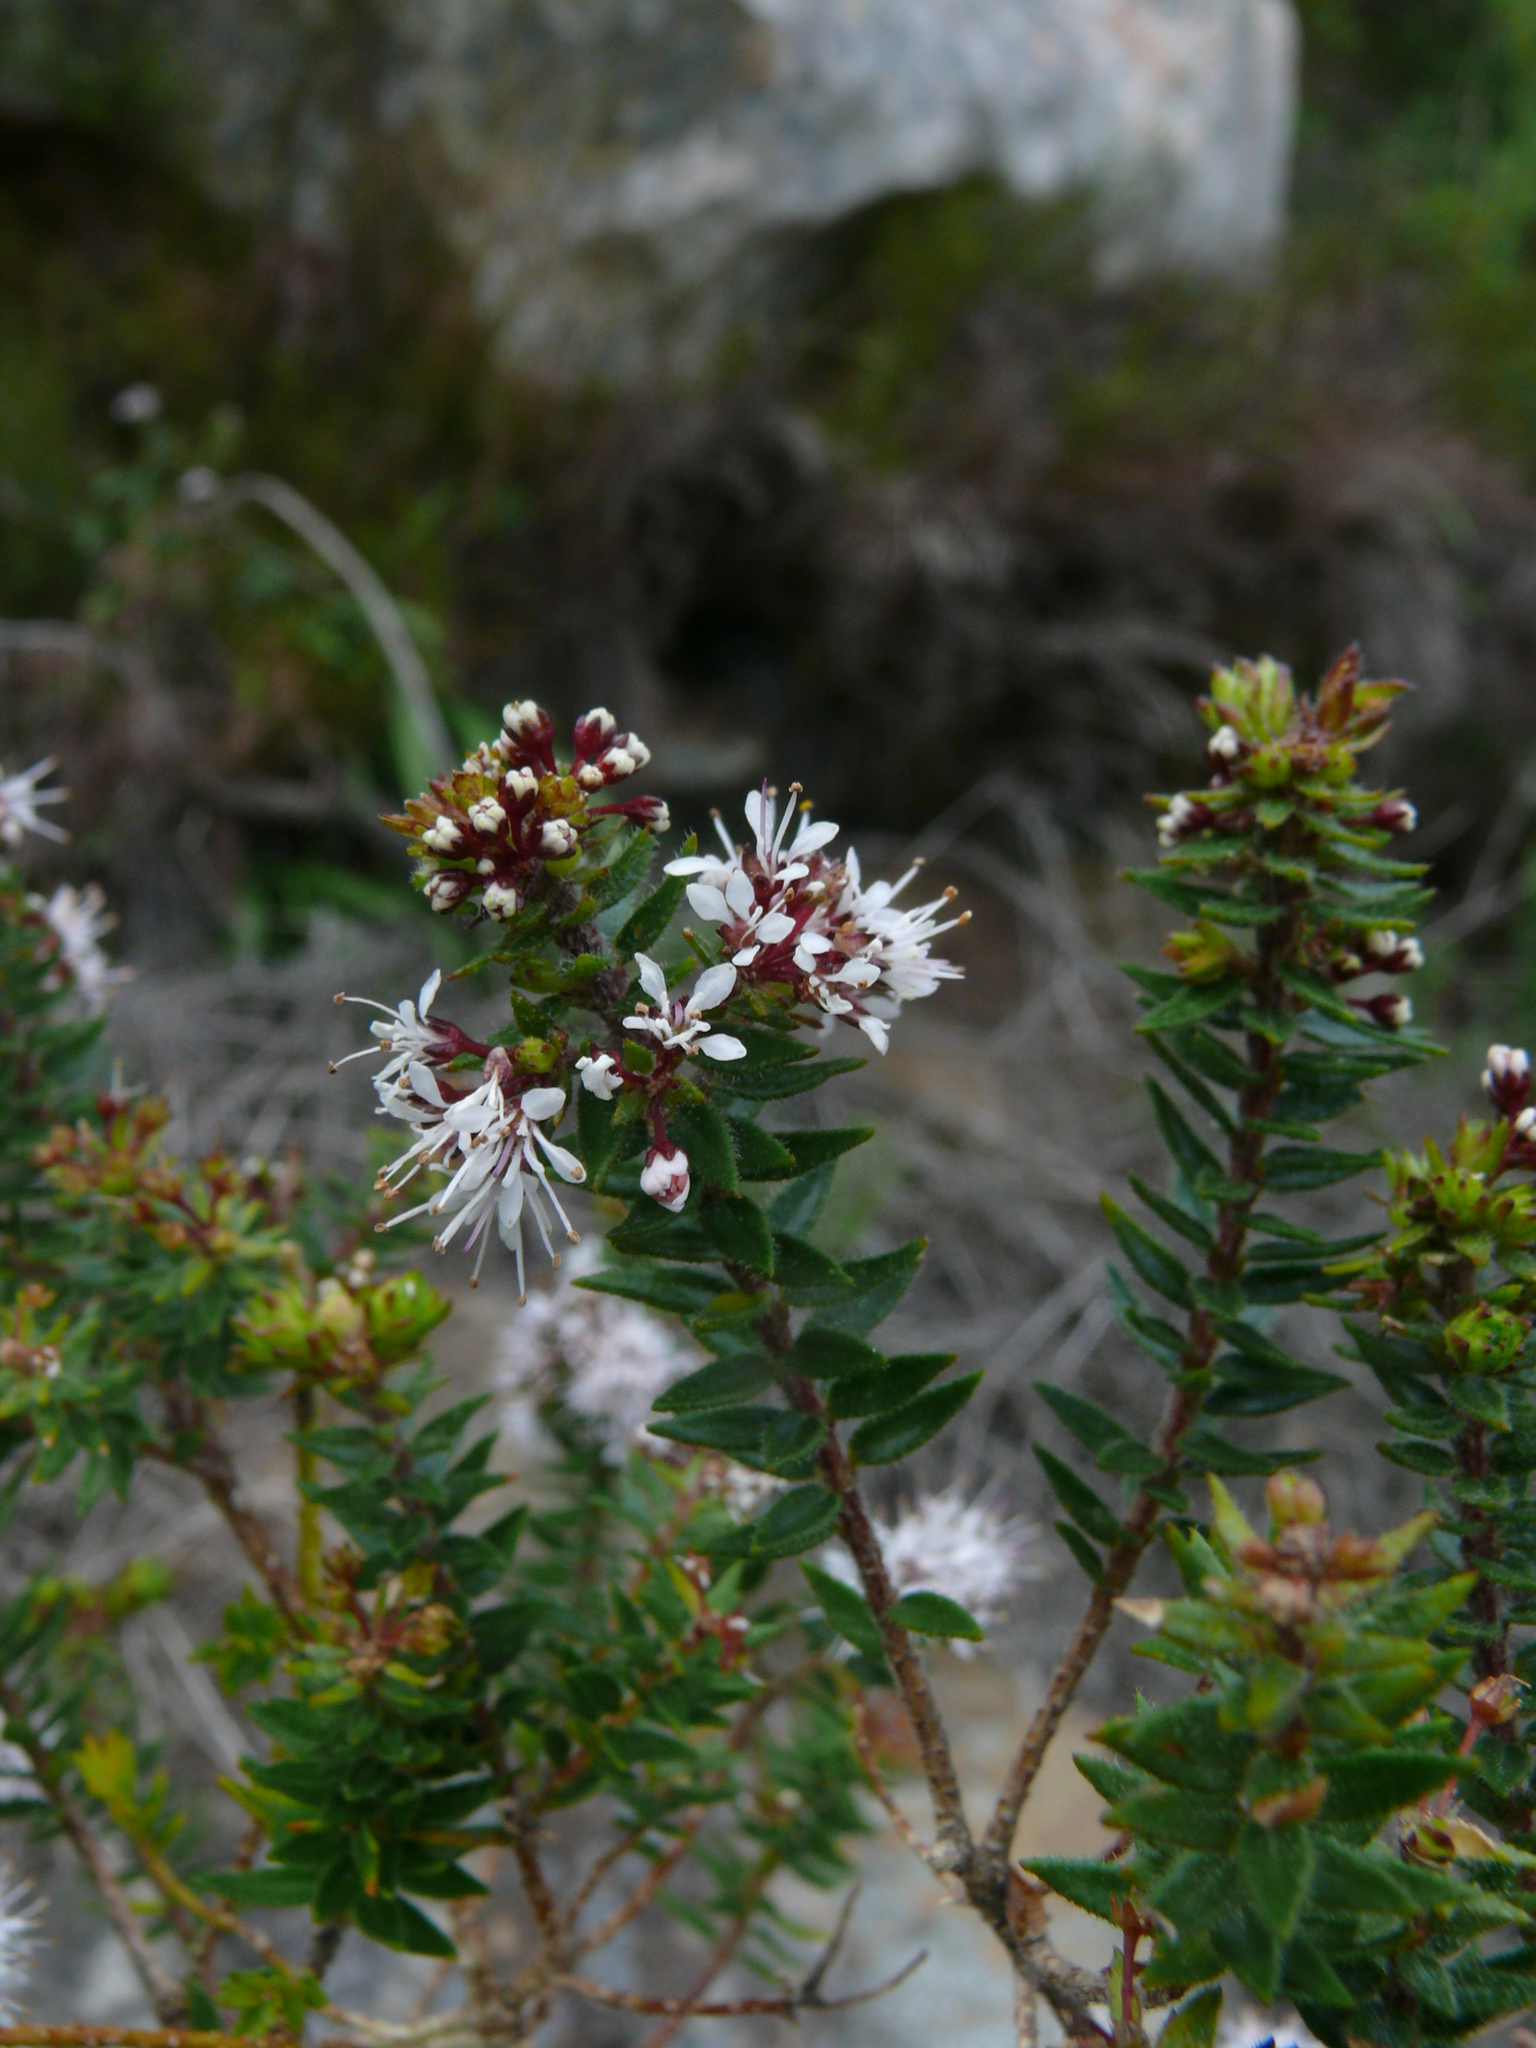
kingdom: Plantae
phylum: Tracheophyta
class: Magnoliopsida
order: Sapindales
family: Rutaceae
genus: Agathosma
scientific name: Agathosma ciliata
